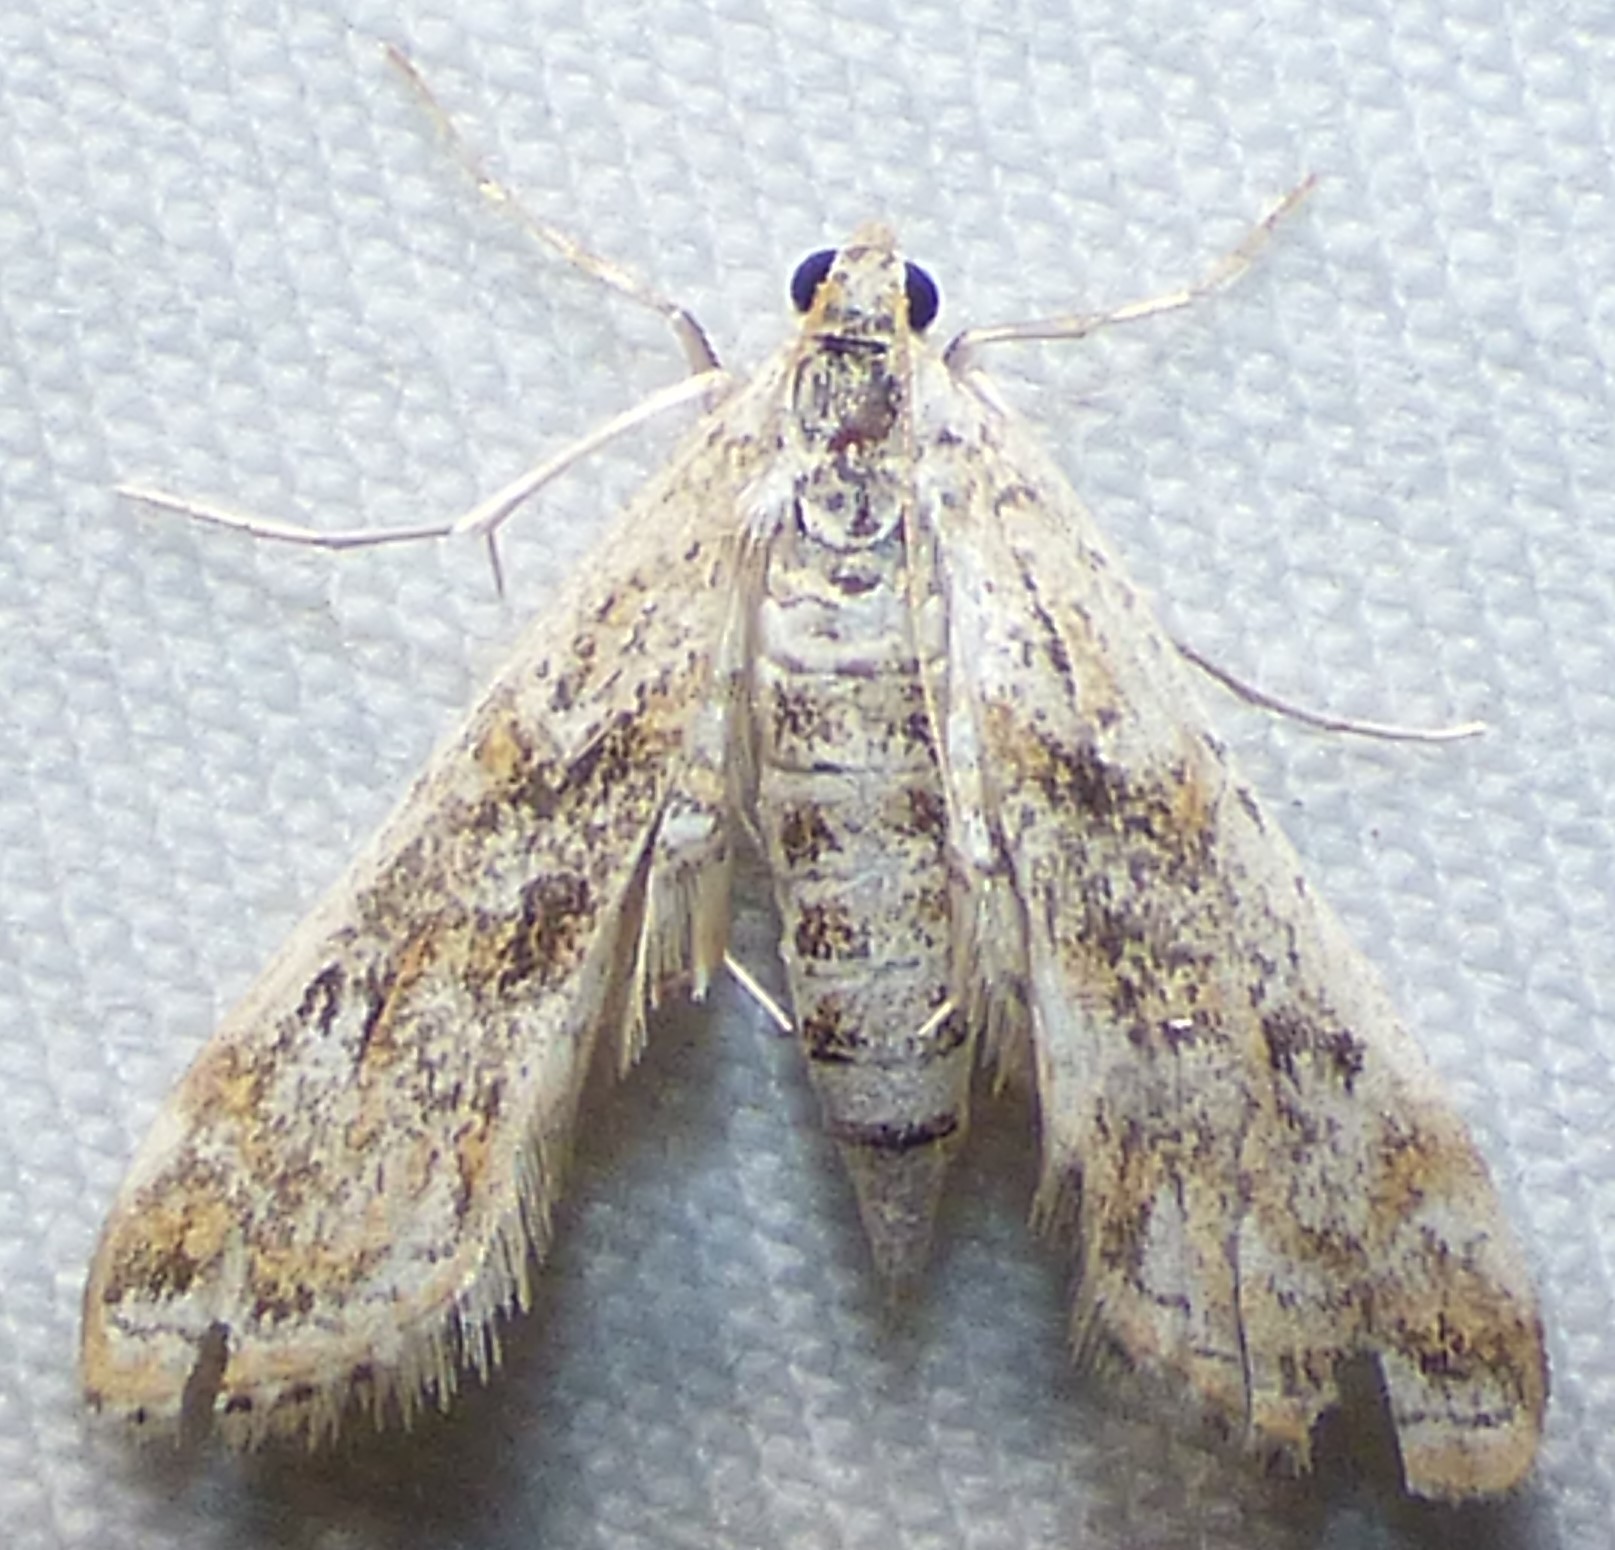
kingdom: Animalia
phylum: Arthropoda
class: Insecta
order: Lepidoptera
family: Crambidae
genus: Parapoynx
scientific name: Parapoynx diminutalis
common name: Hydrilla leafcutter
